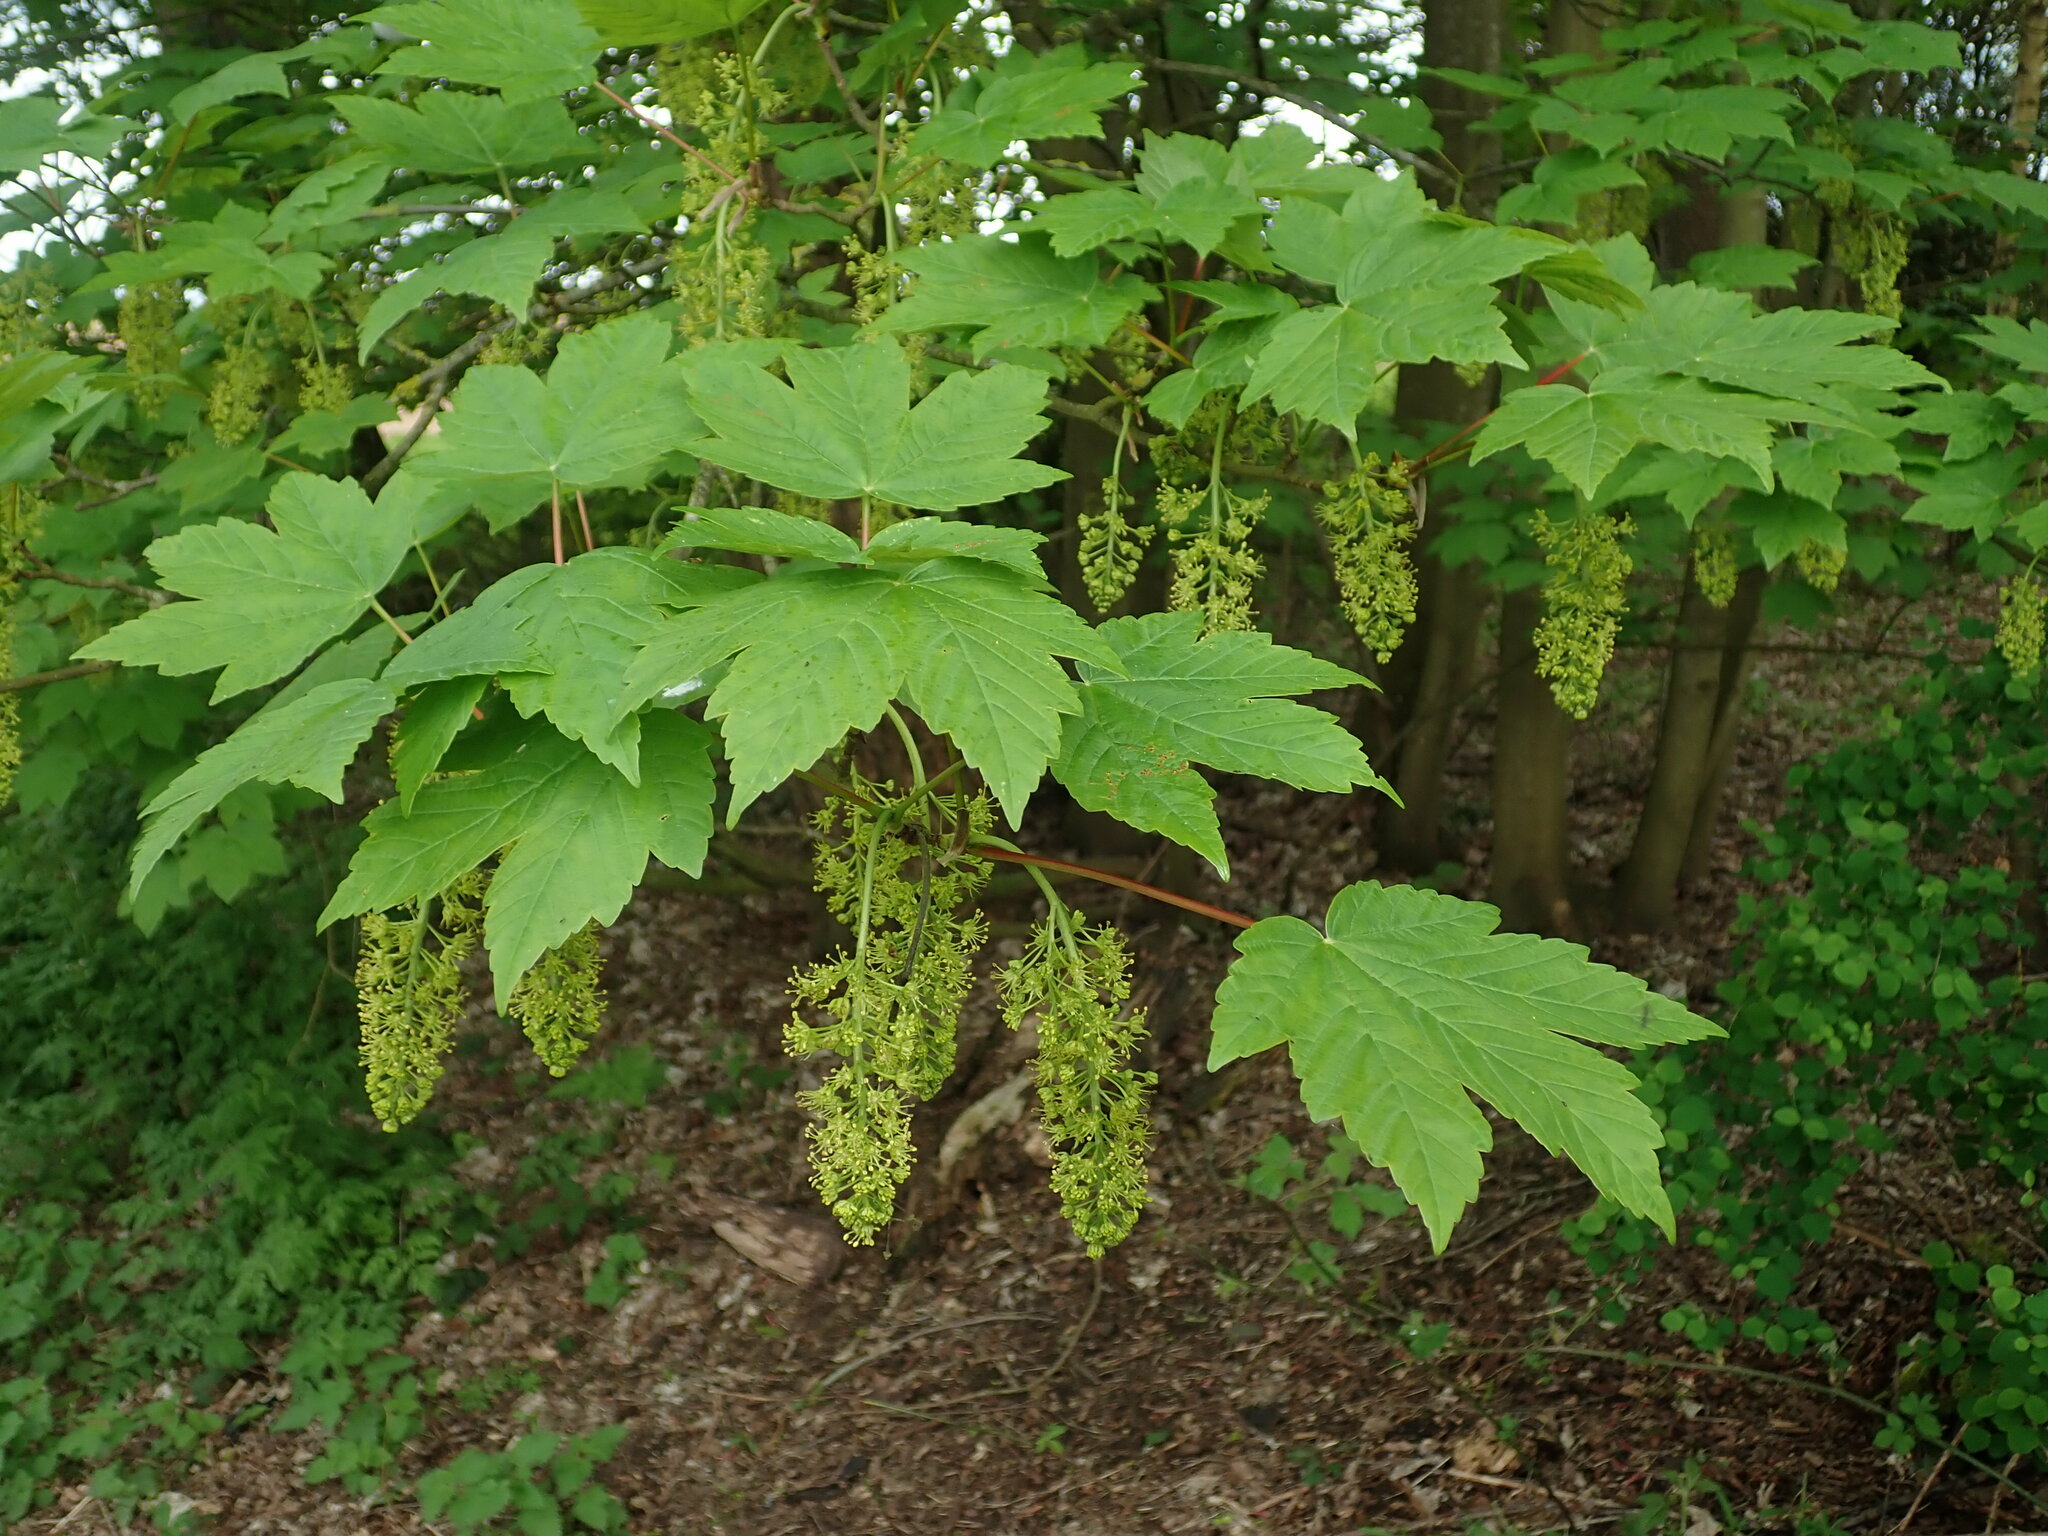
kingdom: Plantae
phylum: Tracheophyta
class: Magnoliopsida
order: Sapindales
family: Sapindaceae
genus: Acer
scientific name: Acer pseudoplatanus
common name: Sycamore
